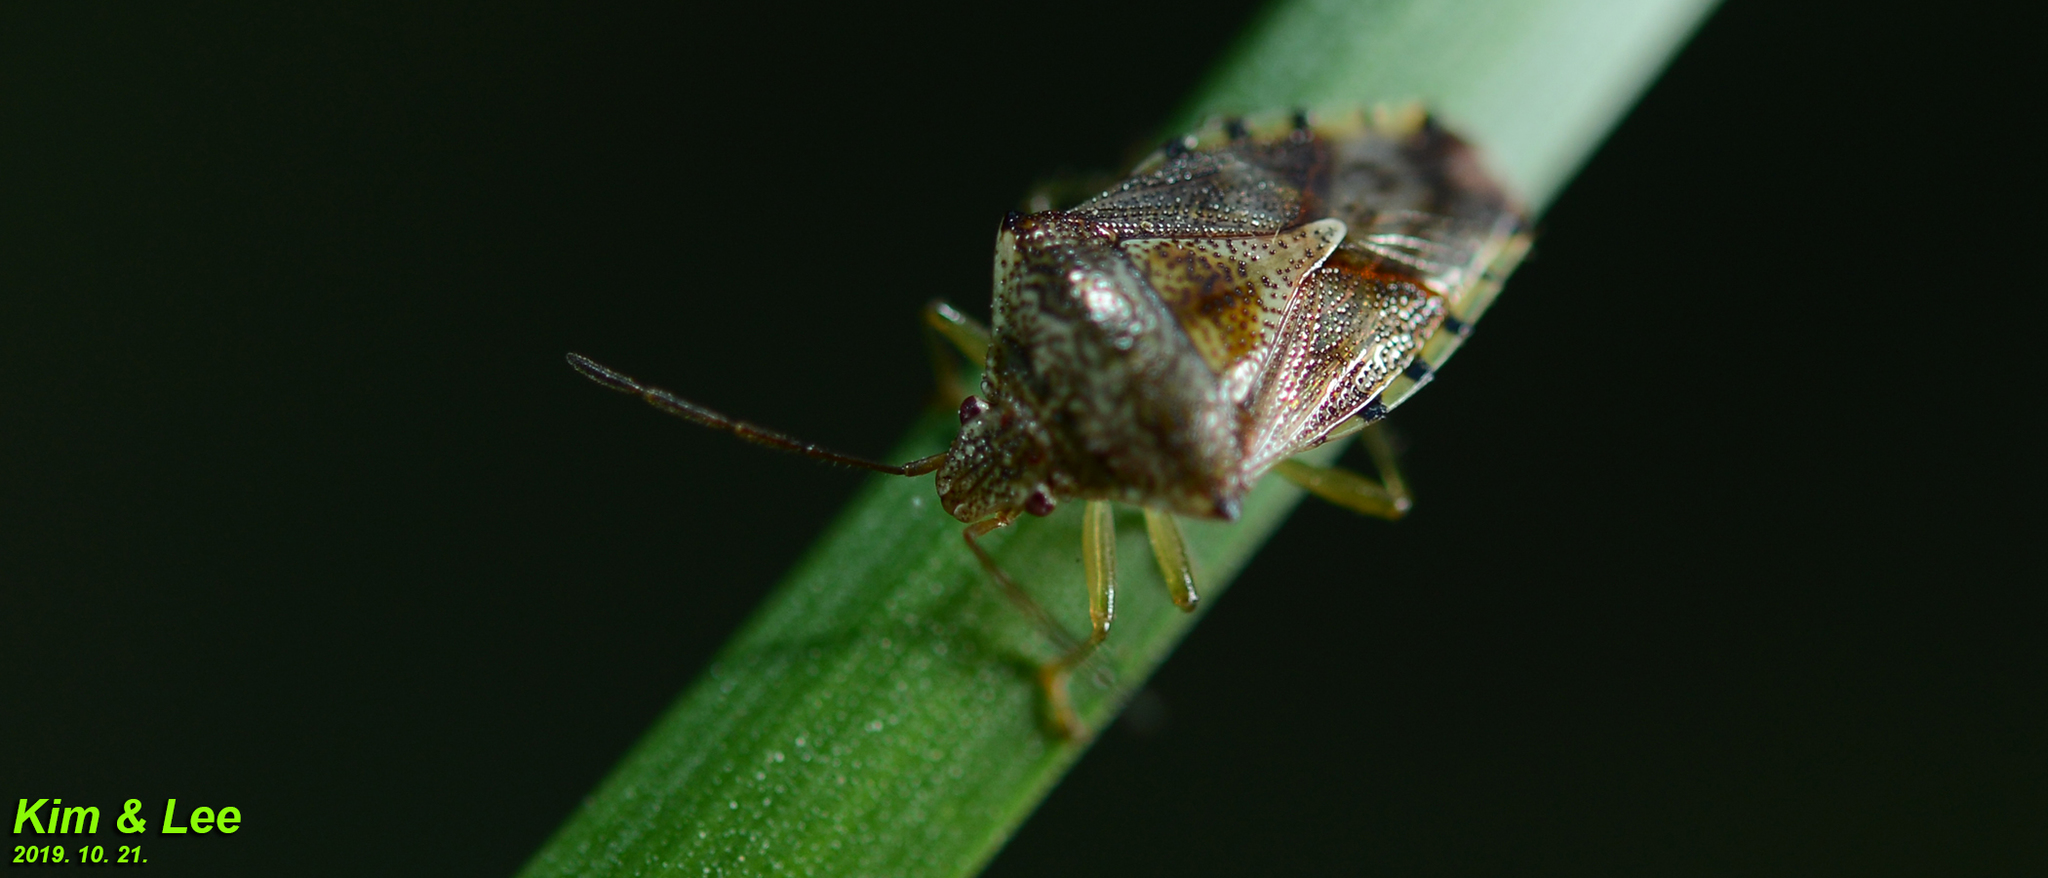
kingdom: Animalia
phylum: Arthropoda
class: Insecta
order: Hemiptera
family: Acanthosomatidae
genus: Elasmucha
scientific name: Elasmucha putoni
